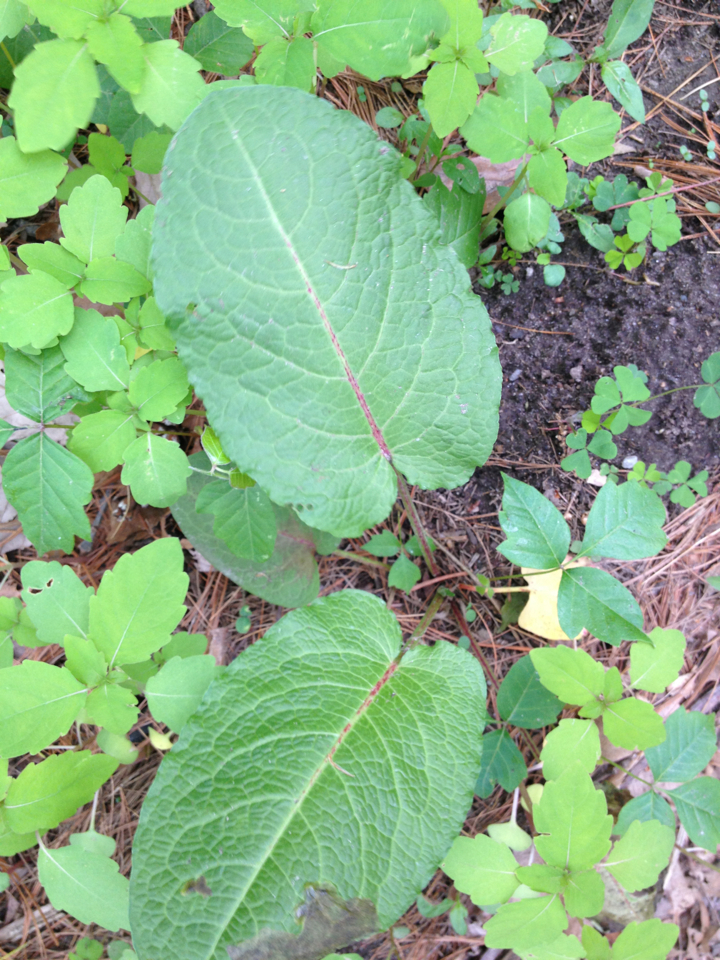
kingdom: Plantae
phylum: Tracheophyta
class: Magnoliopsida
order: Caryophyllales
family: Polygonaceae
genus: Rumex
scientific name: Rumex obtusifolius
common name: Bitter dock
